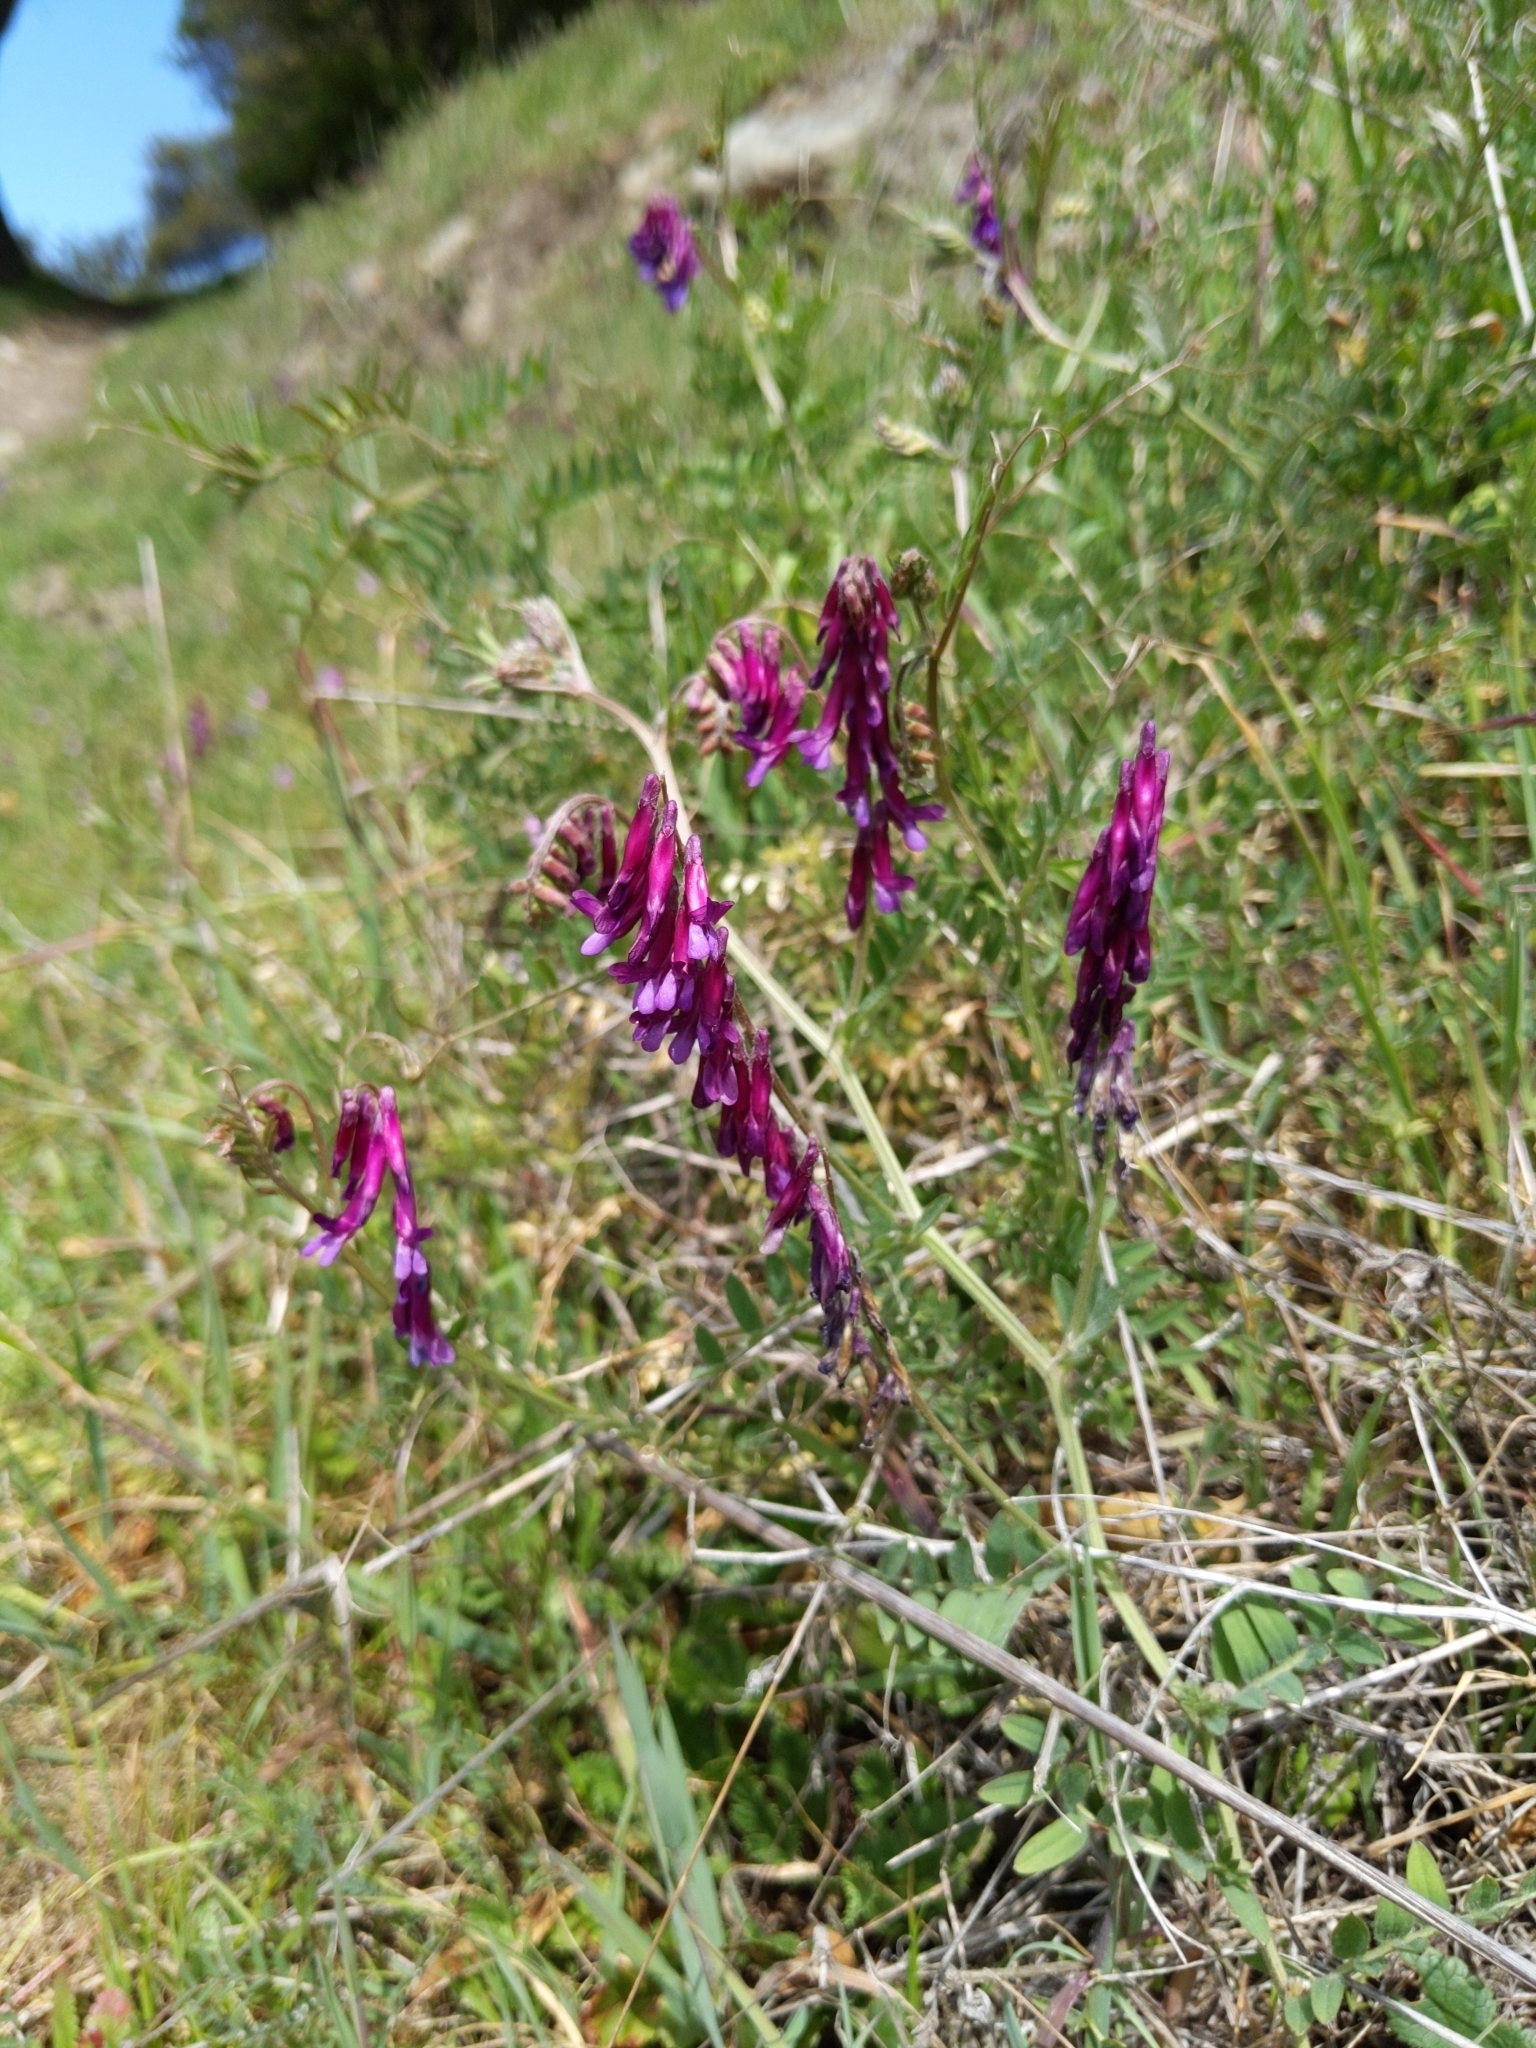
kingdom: Plantae
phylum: Tracheophyta
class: Magnoliopsida
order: Fabales
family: Fabaceae
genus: Vicia
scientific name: Vicia villosa
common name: Fodder vetch
